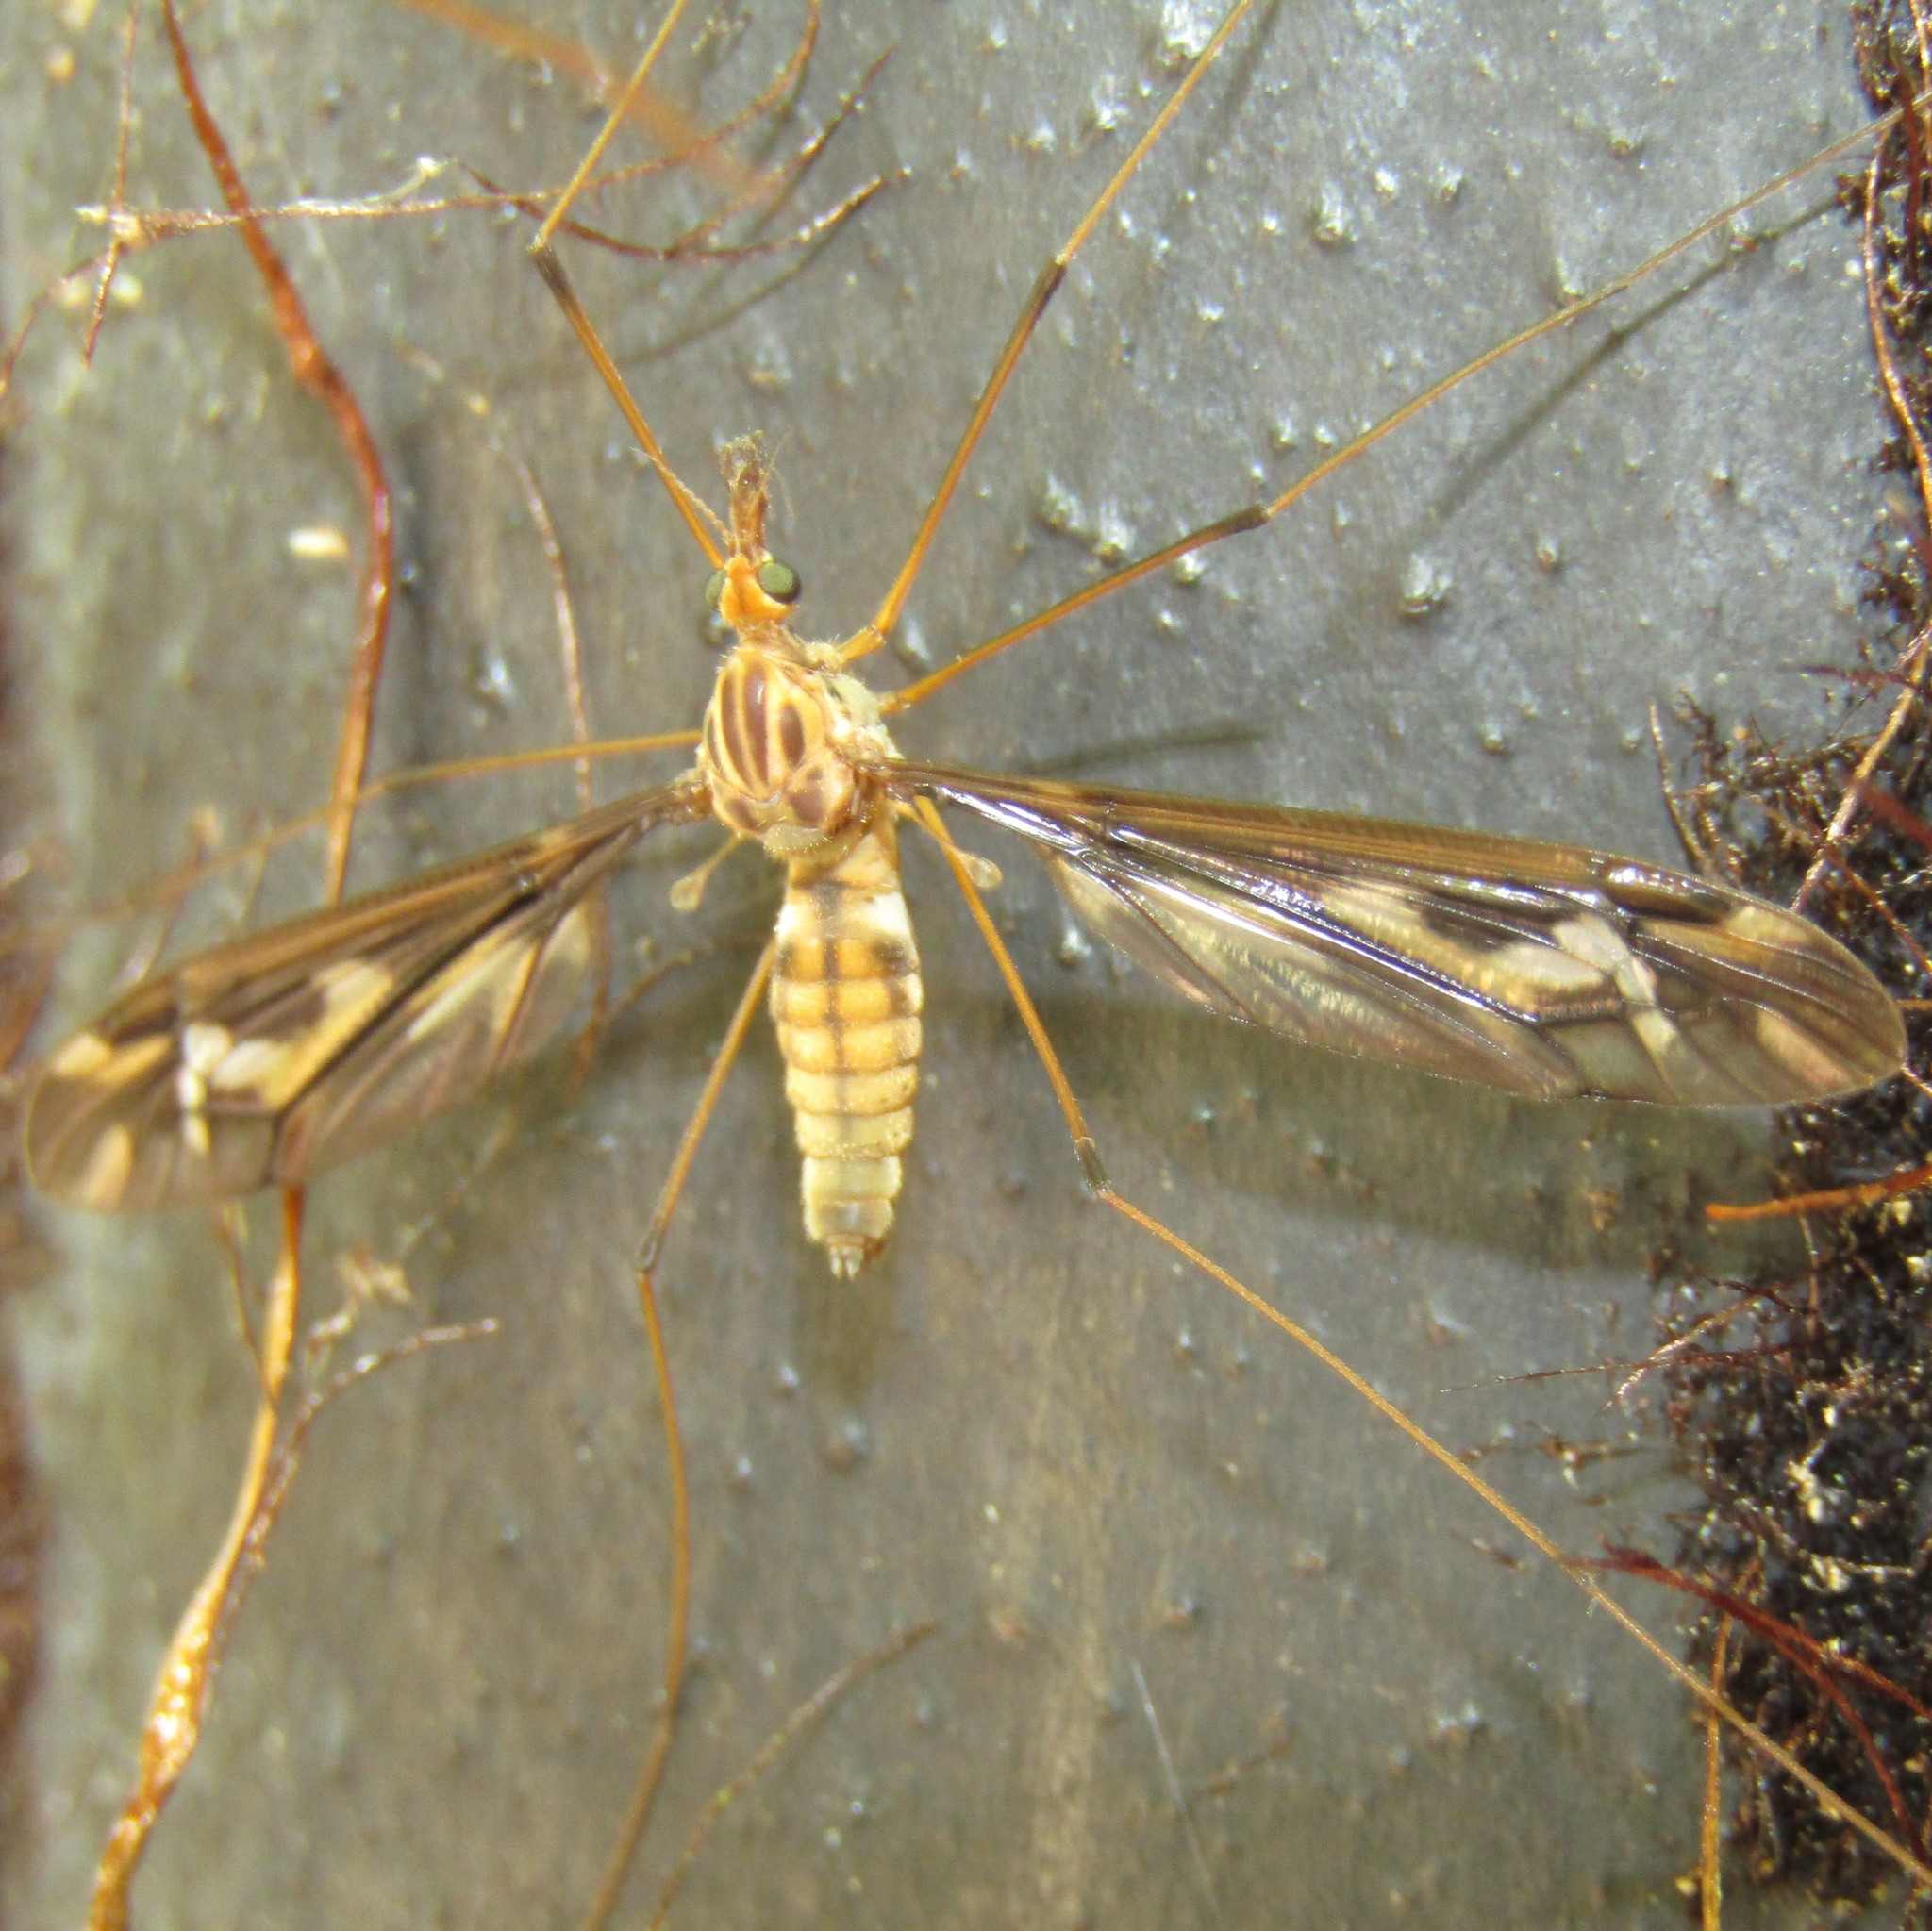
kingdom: Animalia
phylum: Arthropoda
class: Insecta
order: Diptera
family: Tipulidae
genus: Leptotarsus
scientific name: Leptotarsus huttoni
